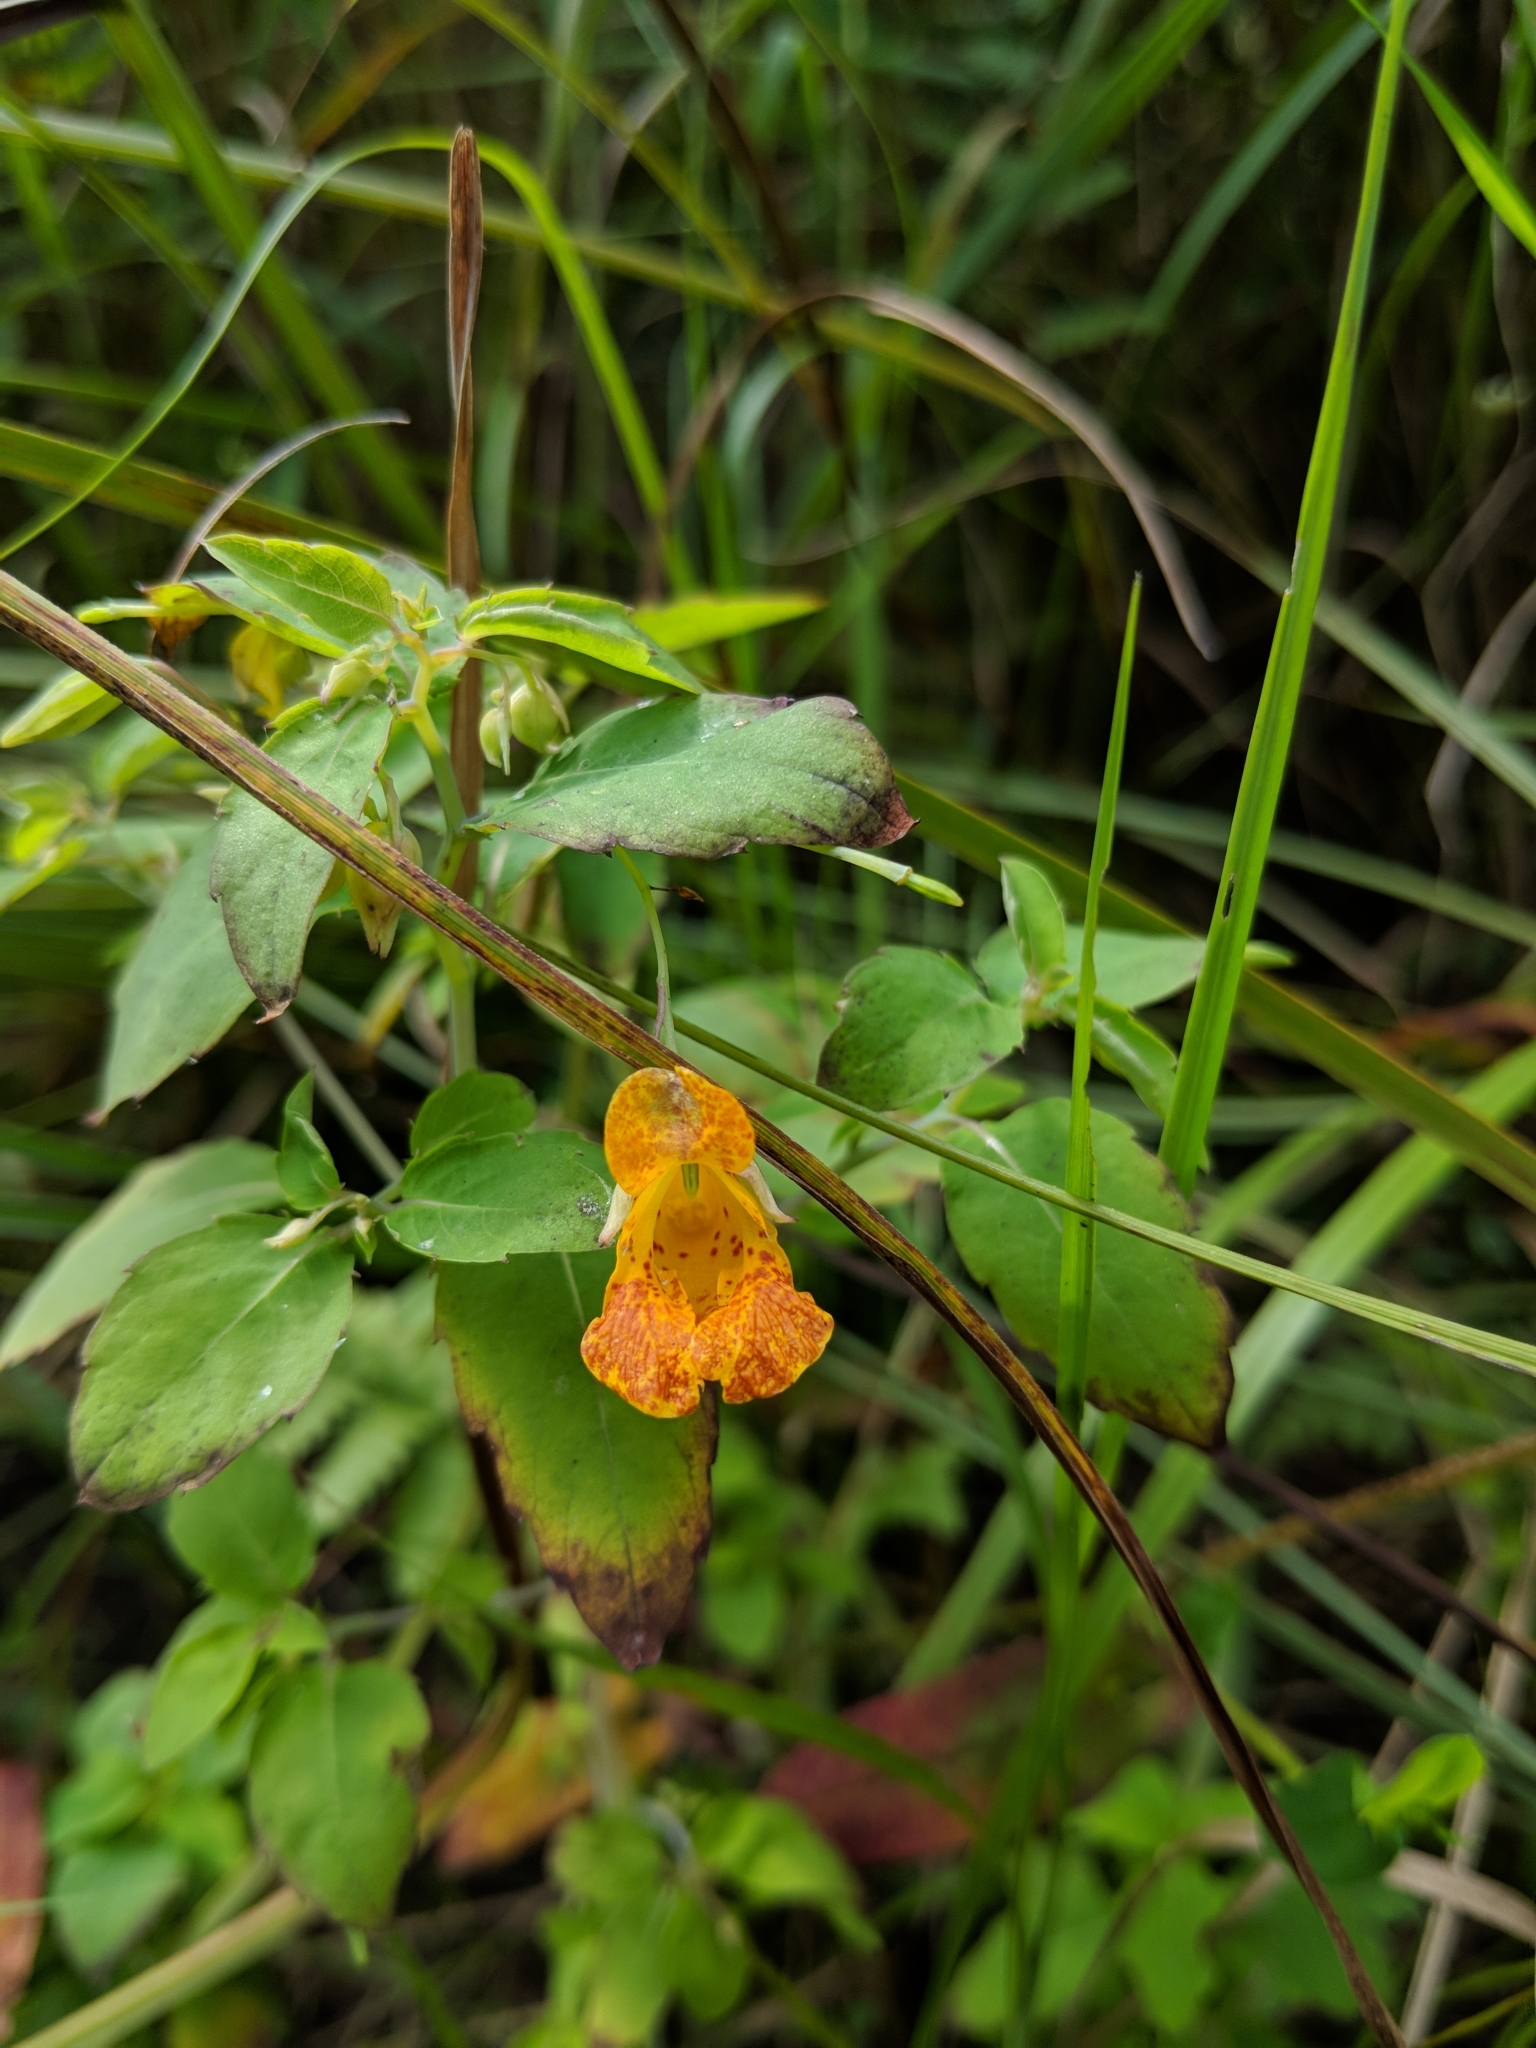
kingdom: Plantae
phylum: Tracheophyta
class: Magnoliopsida
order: Ericales
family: Balsaminaceae
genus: Impatiens
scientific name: Impatiens capensis
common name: Orange balsam
